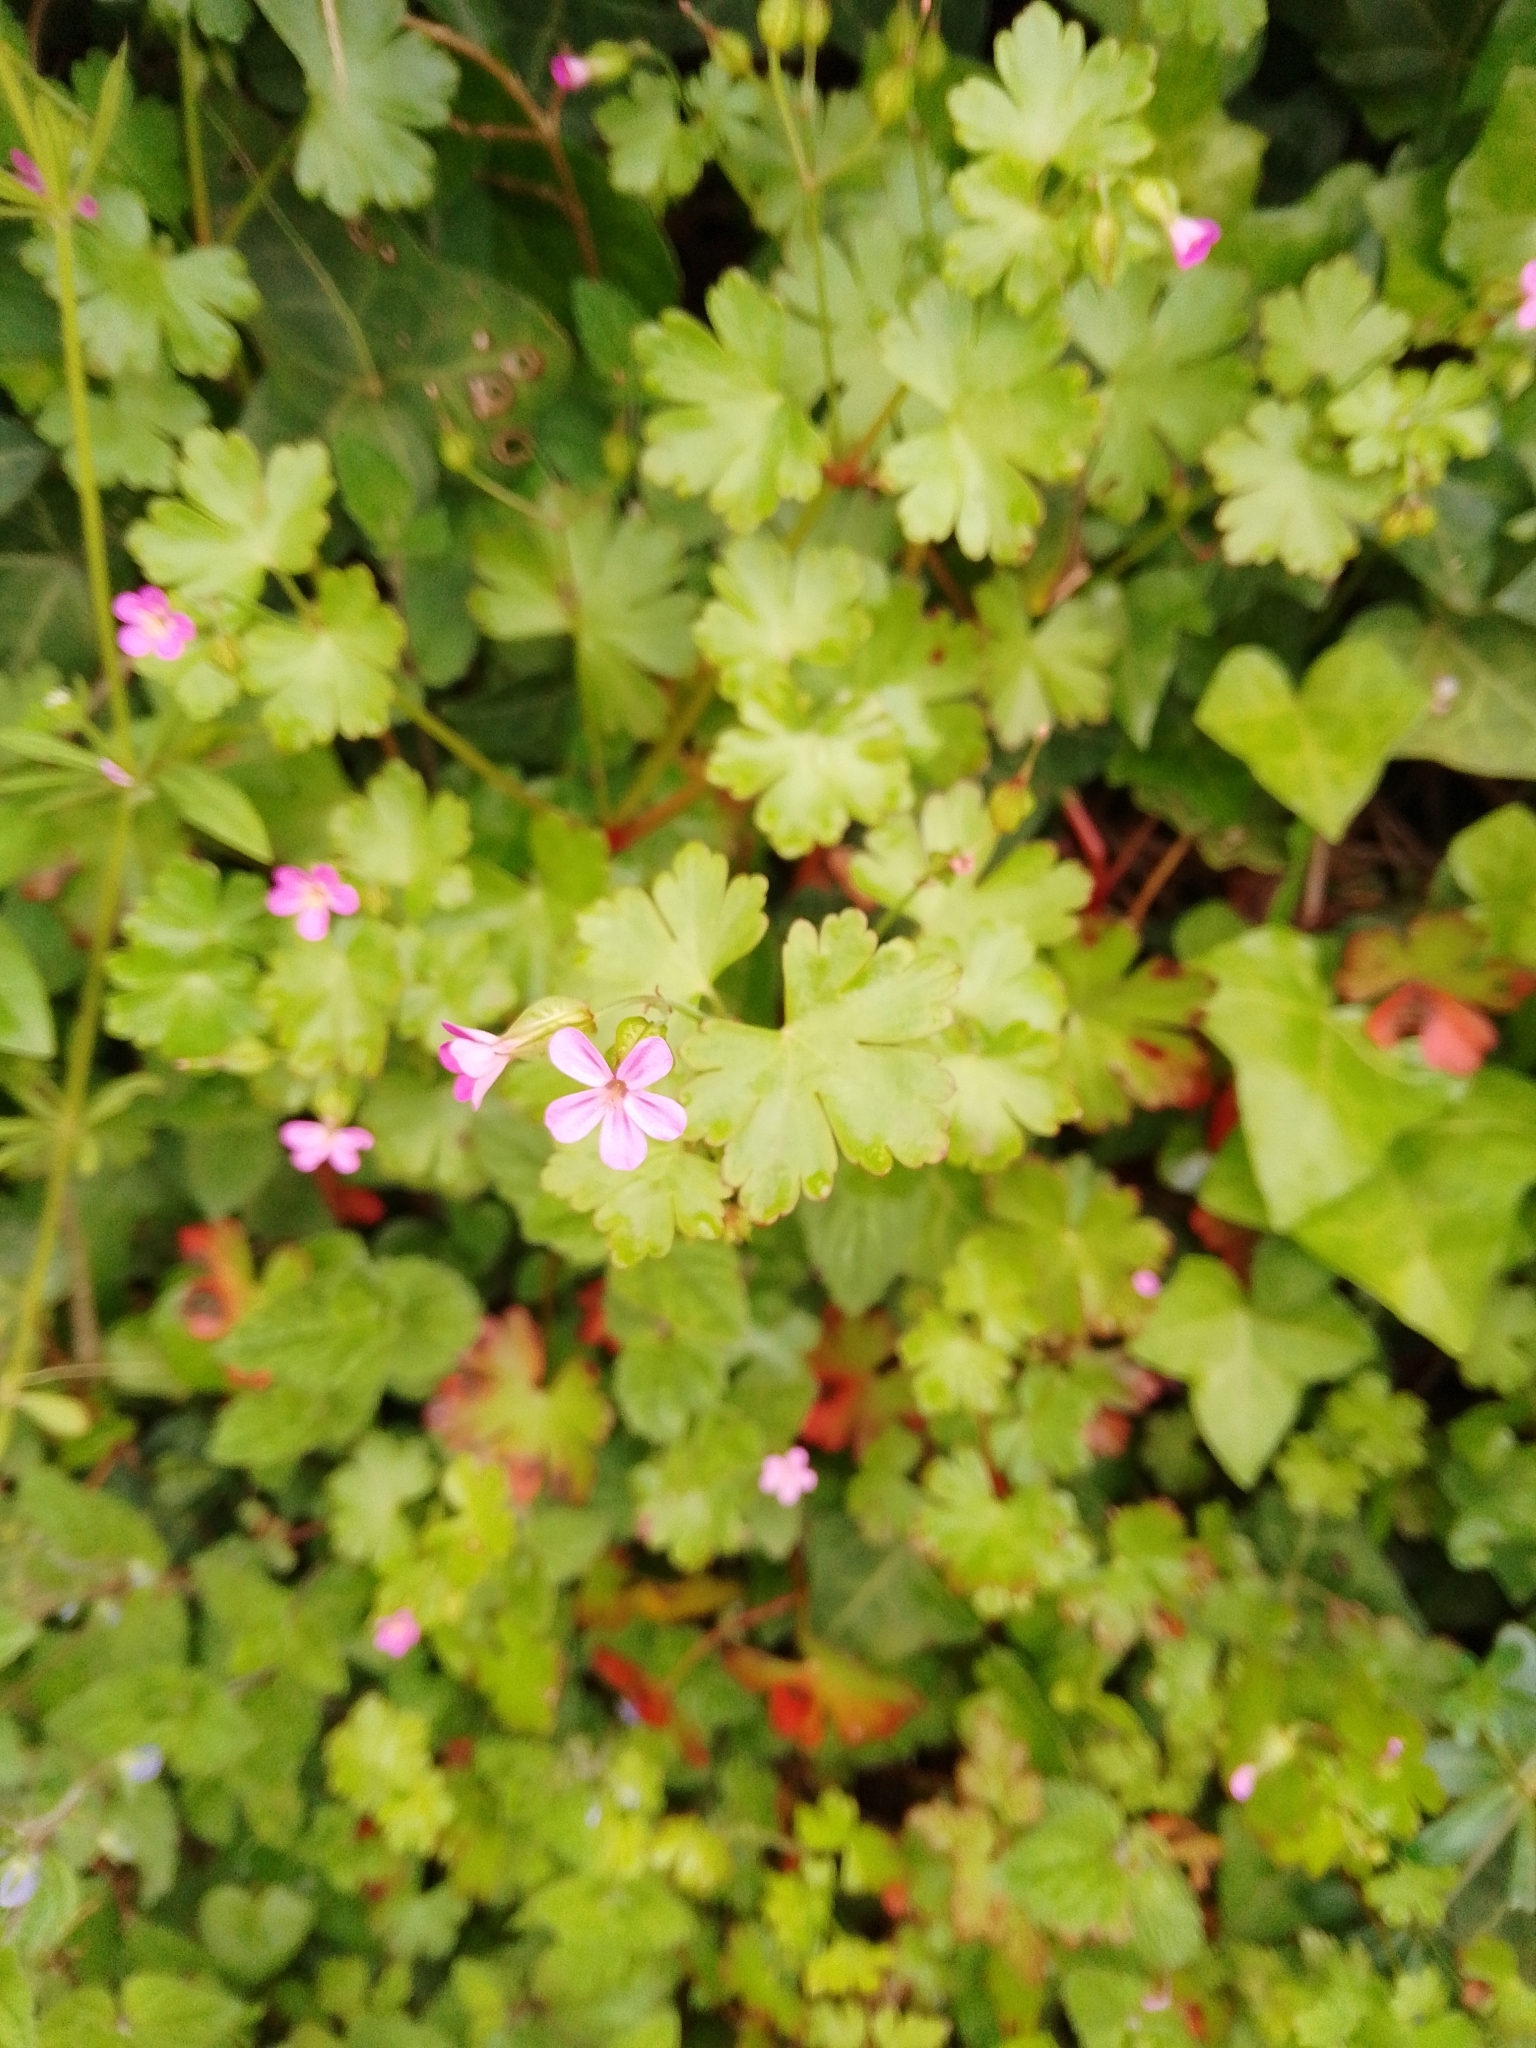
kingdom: Plantae
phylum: Tracheophyta
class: Magnoliopsida
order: Geraniales
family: Geraniaceae
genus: Geranium
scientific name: Geranium lucidum
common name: Shining crane's-bill
